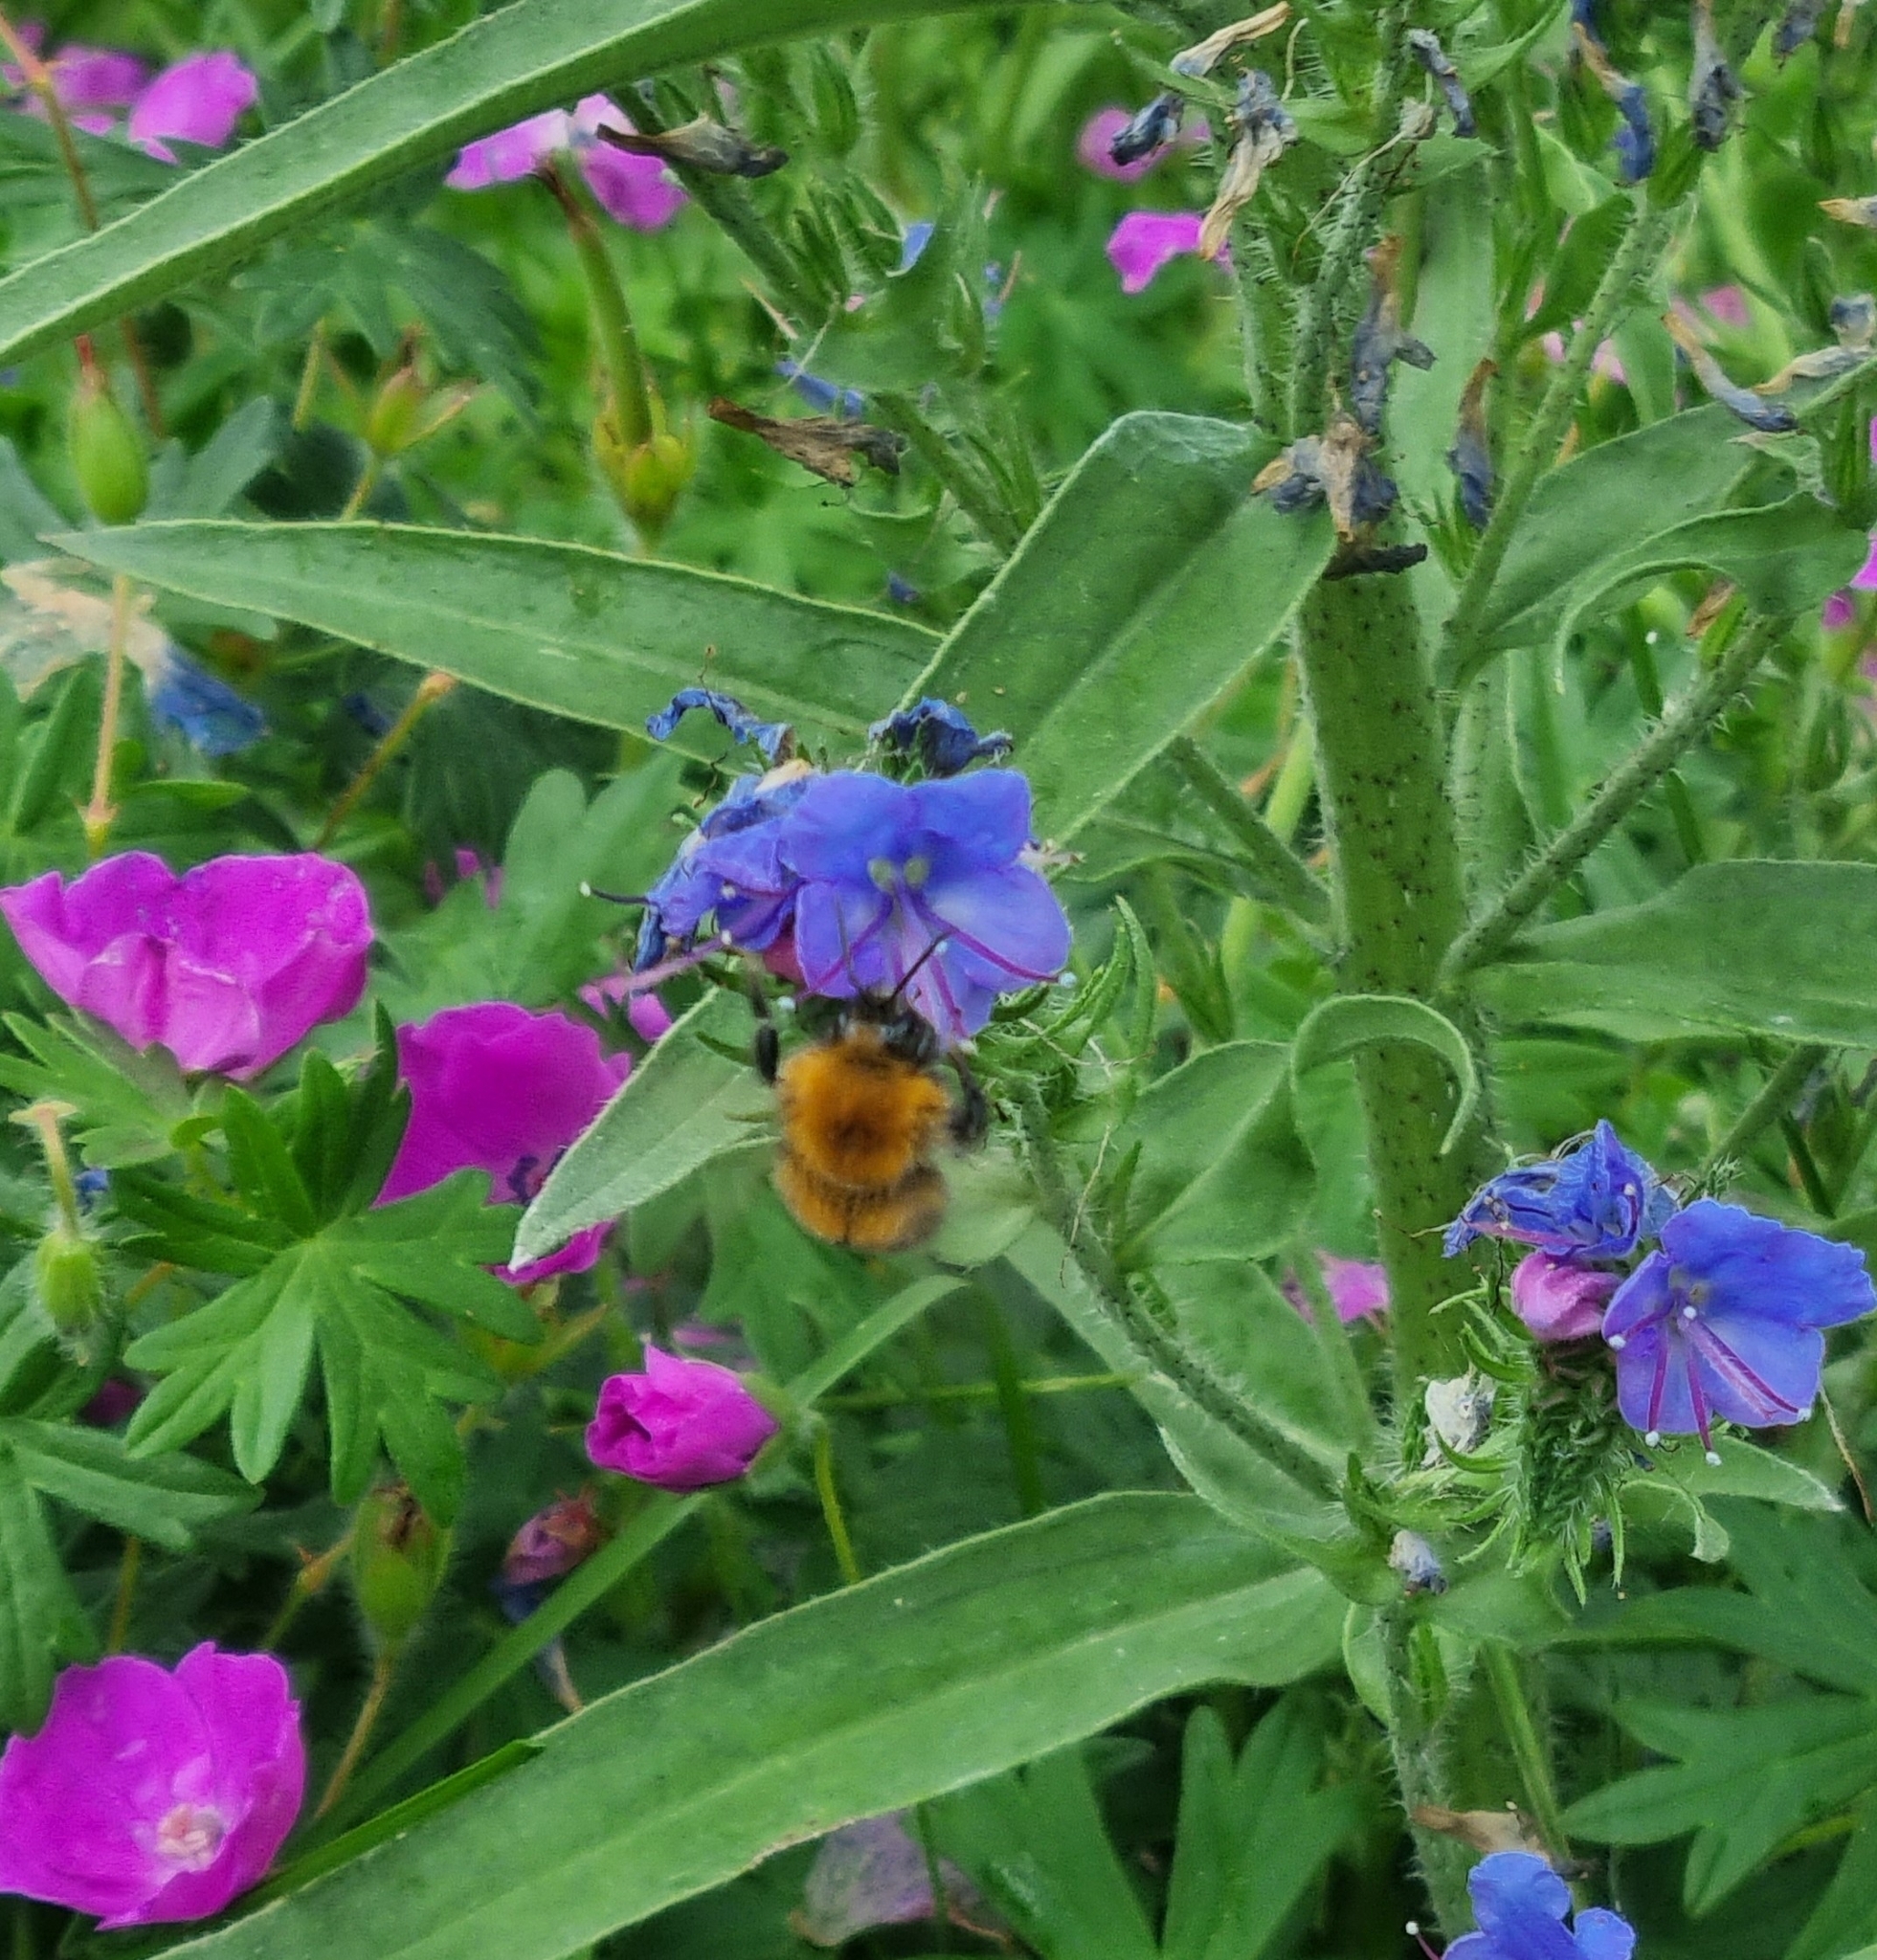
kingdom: Animalia
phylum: Arthropoda
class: Insecta
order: Hymenoptera
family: Apidae
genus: Bombus
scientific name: Bombus hypnorum
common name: New garden bumblebee
